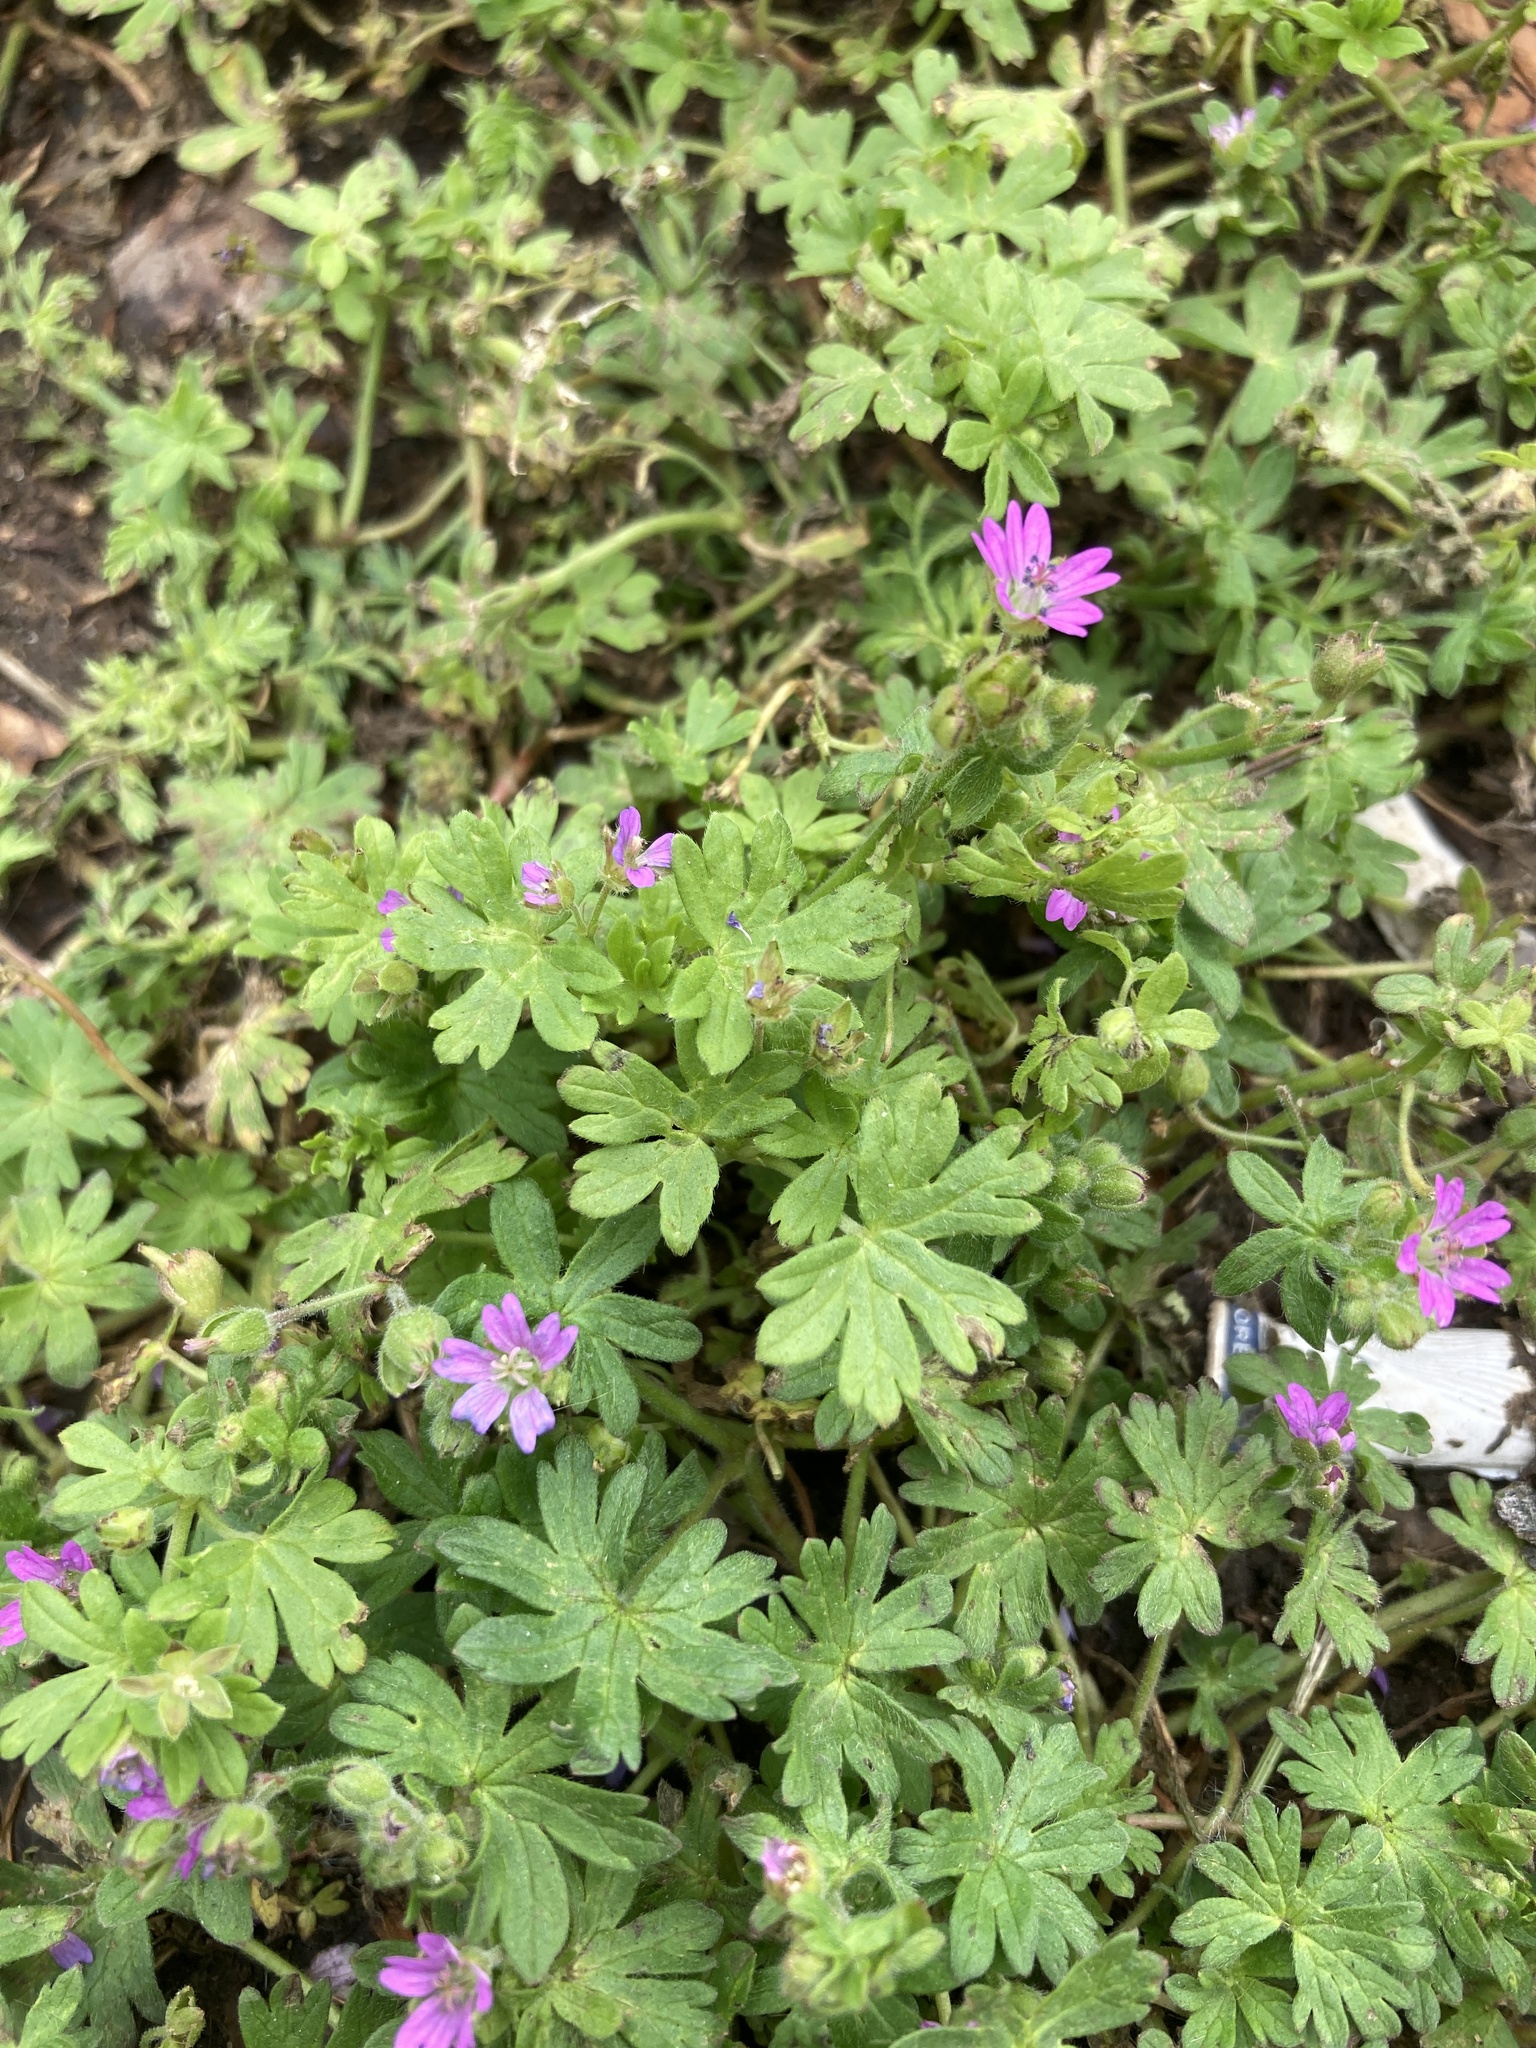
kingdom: Plantae
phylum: Tracheophyta
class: Magnoliopsida
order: Geraniales
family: Geraniaceae
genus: Geranium
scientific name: Geranium molle
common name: Dove's-foot crane's-bill
